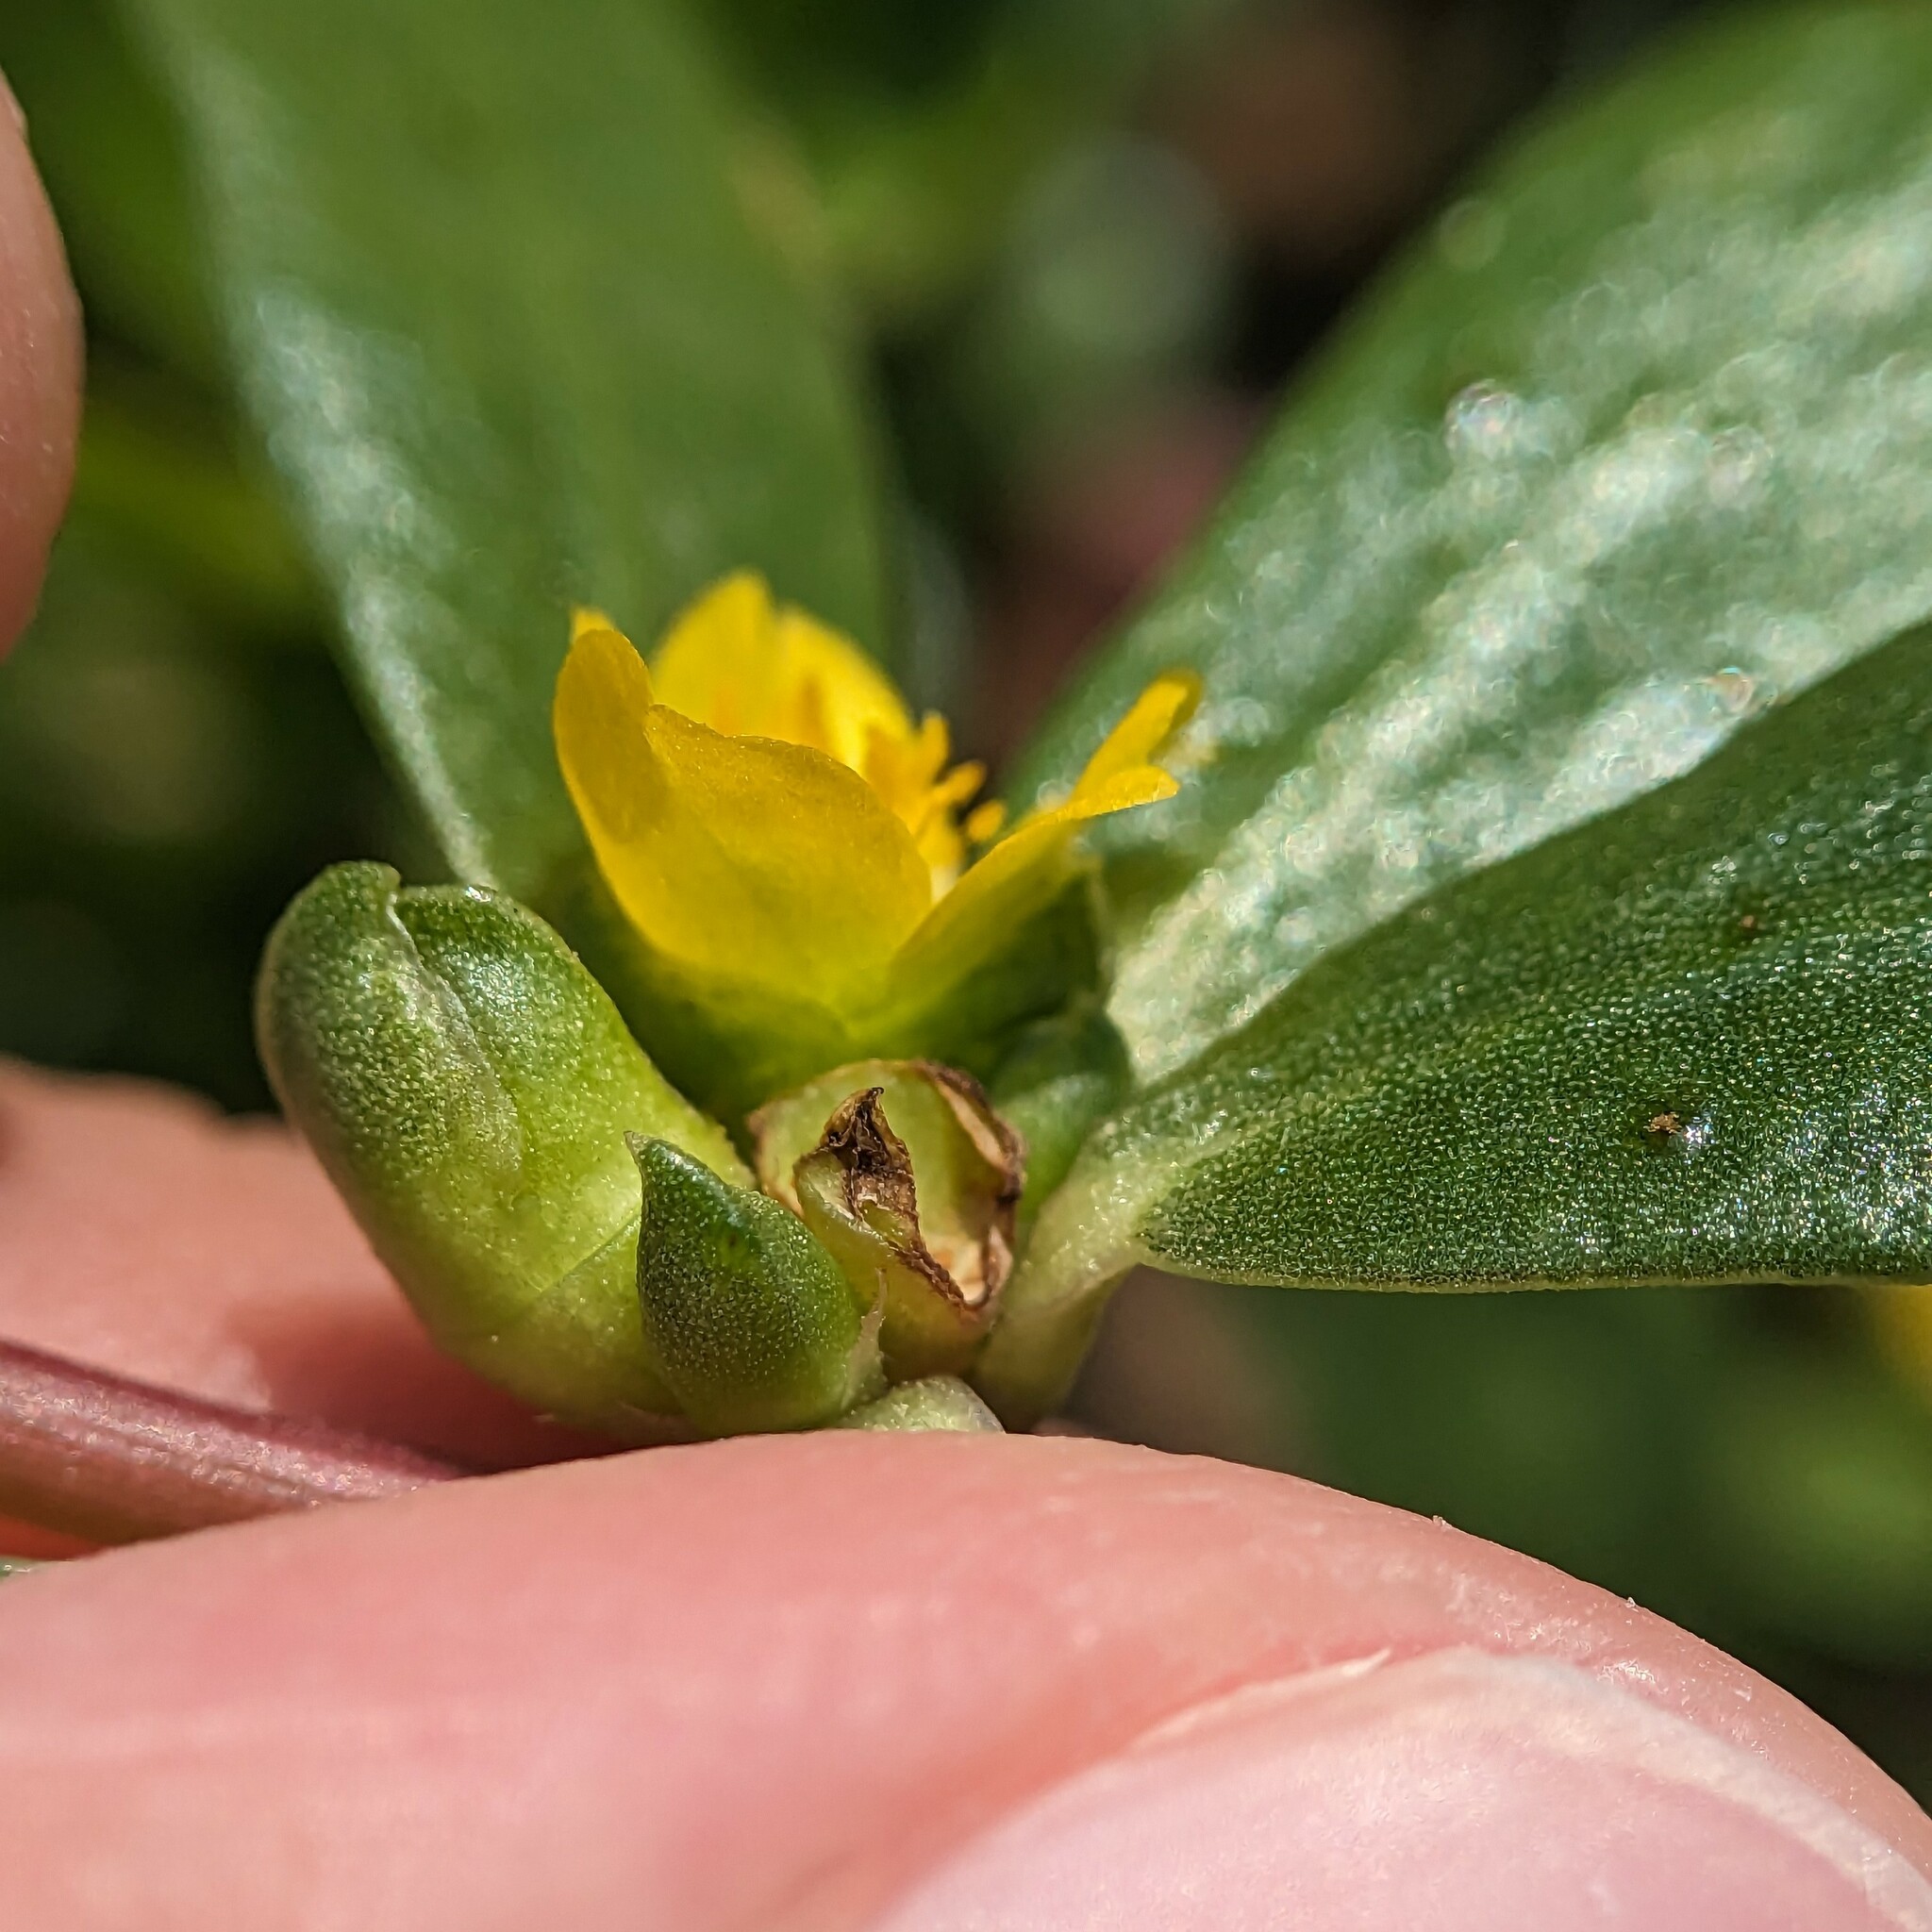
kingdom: Plantae
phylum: Tracheophyta
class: Magnoliopsida
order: Caryophyllales
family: Portulacaceae
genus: Portulaca
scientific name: Portulaca oleracea
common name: Common purslane
